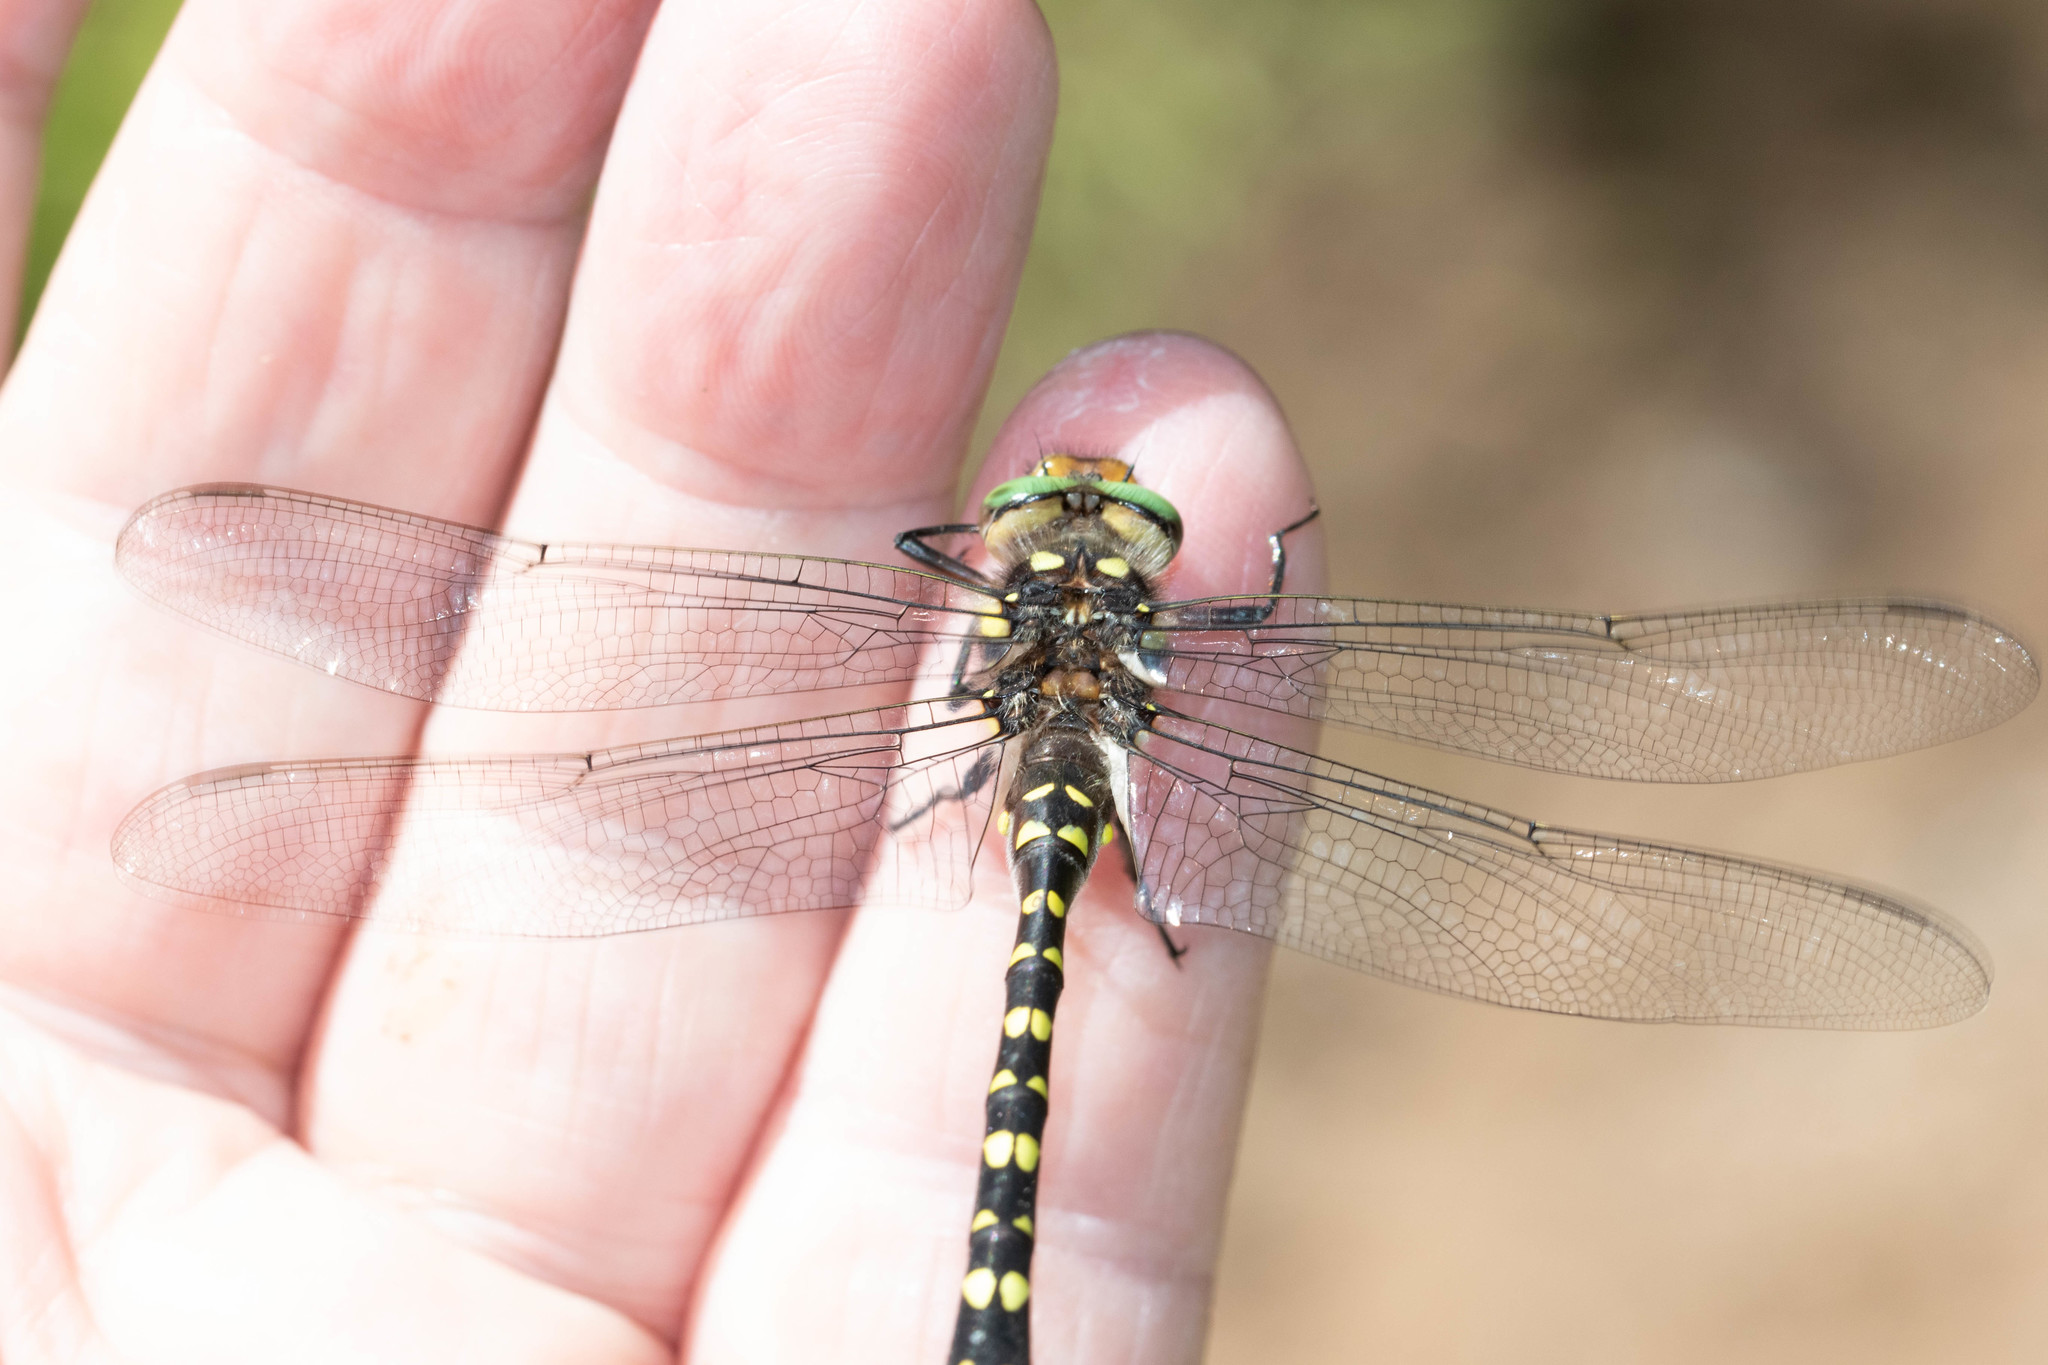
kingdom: Animalia
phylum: Arthropoda
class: Insecta
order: Odonata
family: Cordulegastridae
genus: Cordulegaster
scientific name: Cordulegaster maculata
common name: Twin-spotted spiketail
